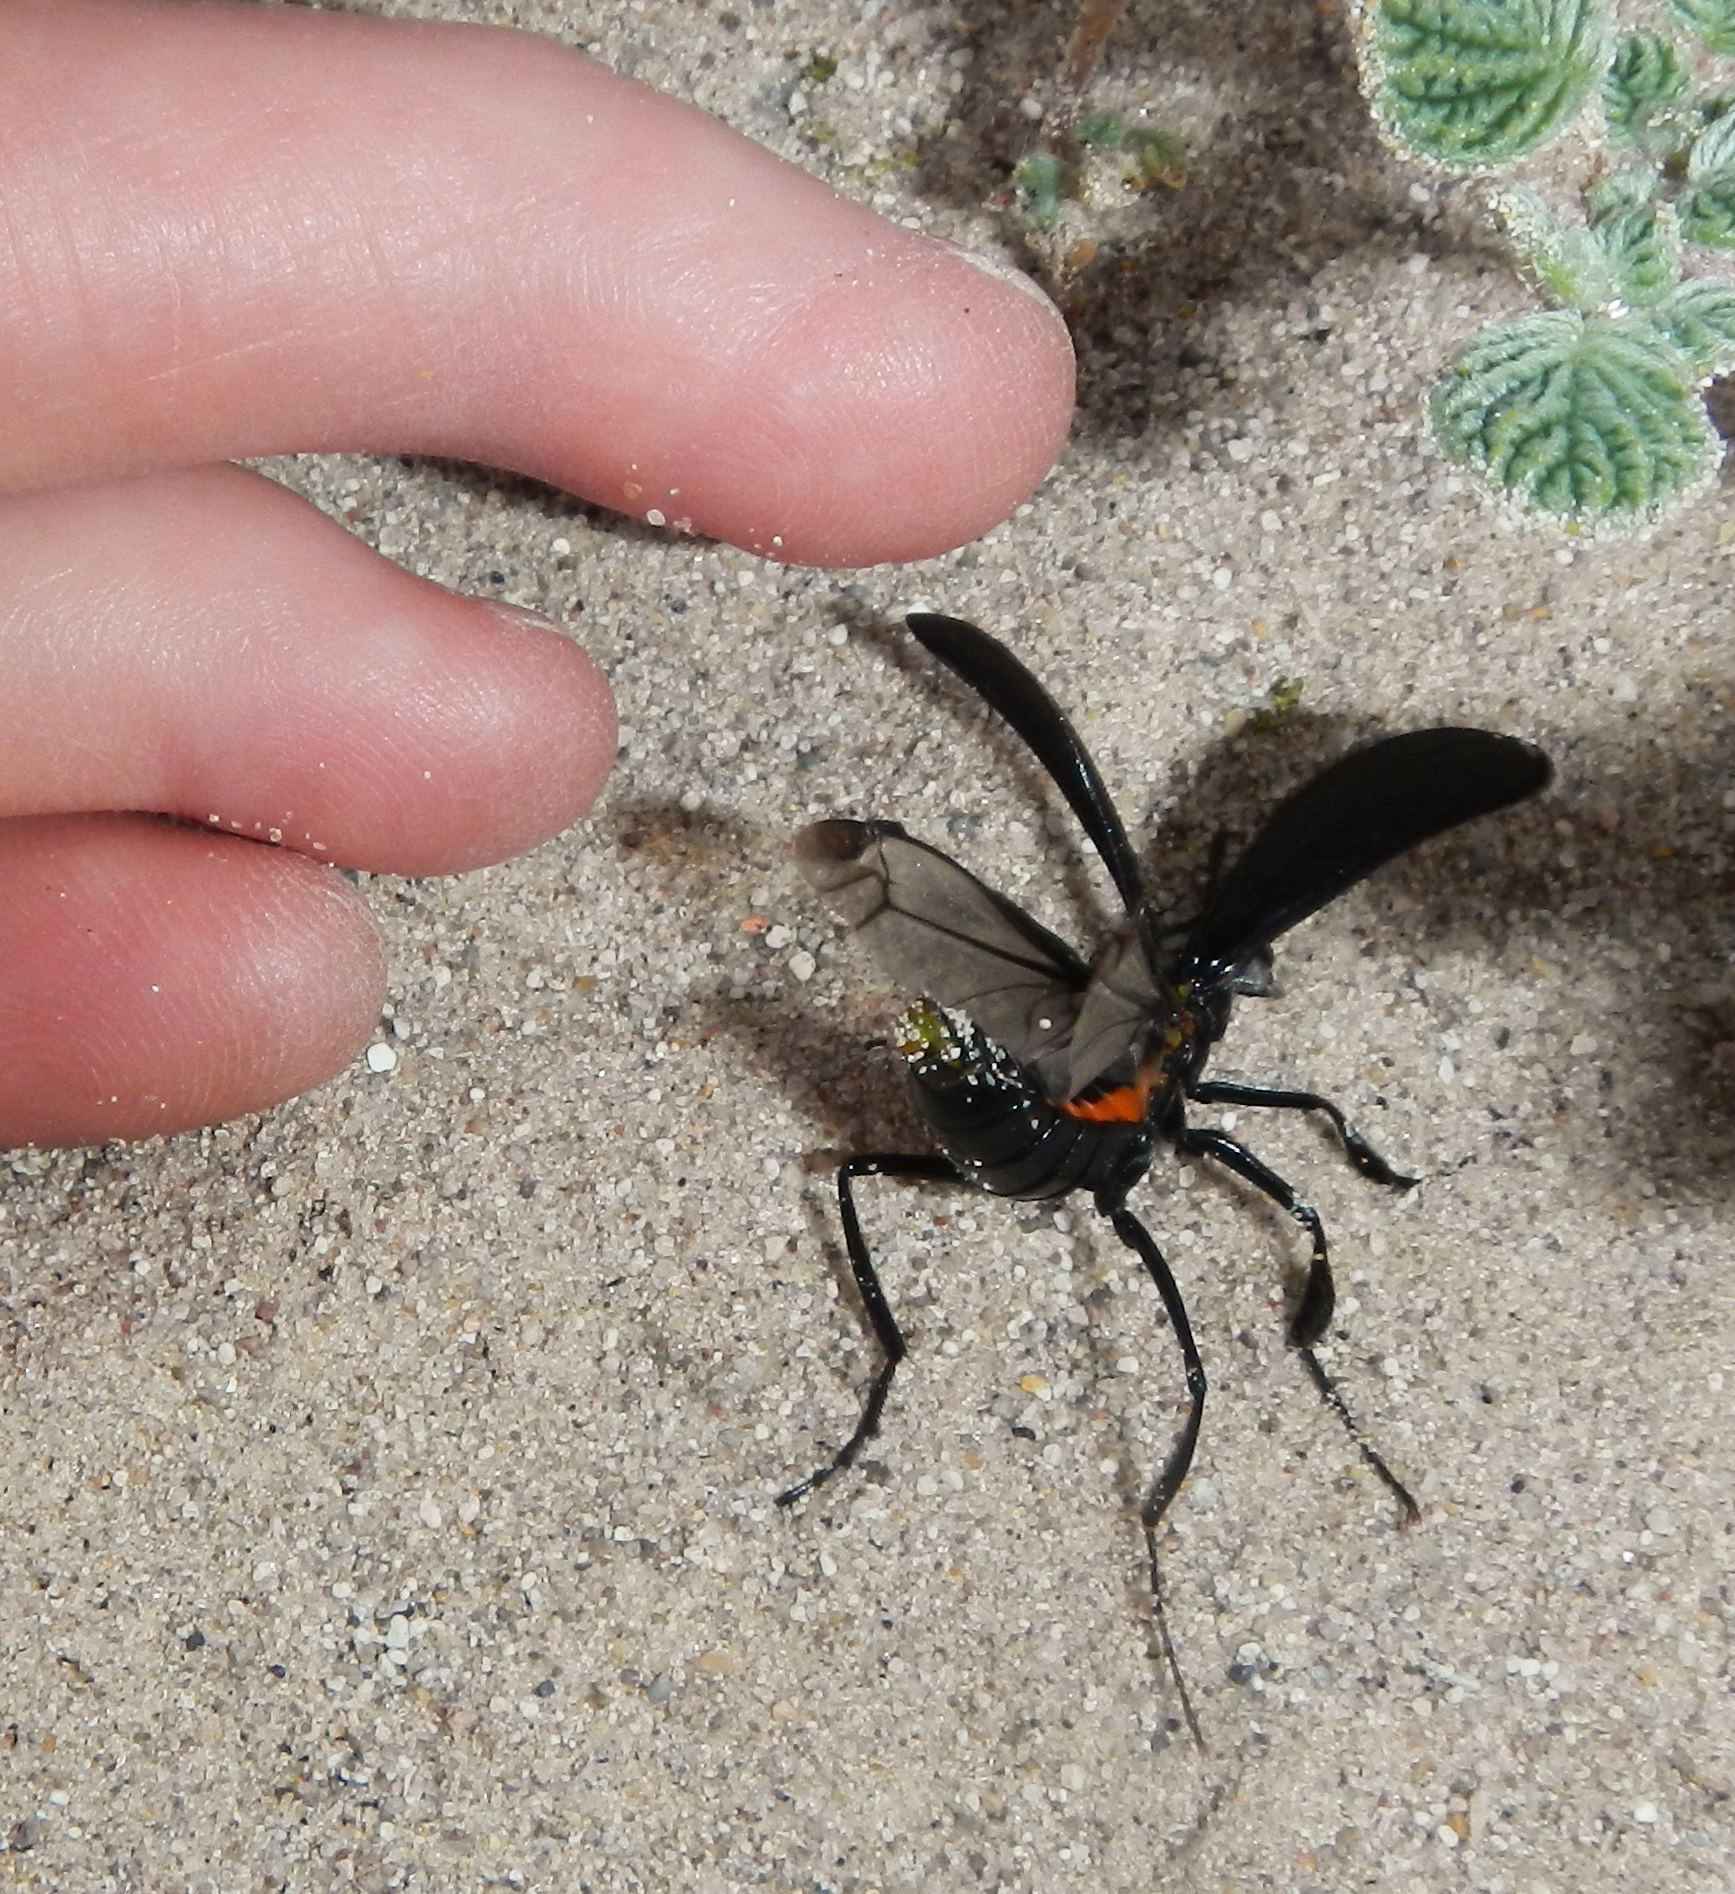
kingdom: Animalia
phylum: Arthropoda
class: Insecta
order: Coleoptera
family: Meloidae
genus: Phodaga
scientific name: Phodaga alticeps
